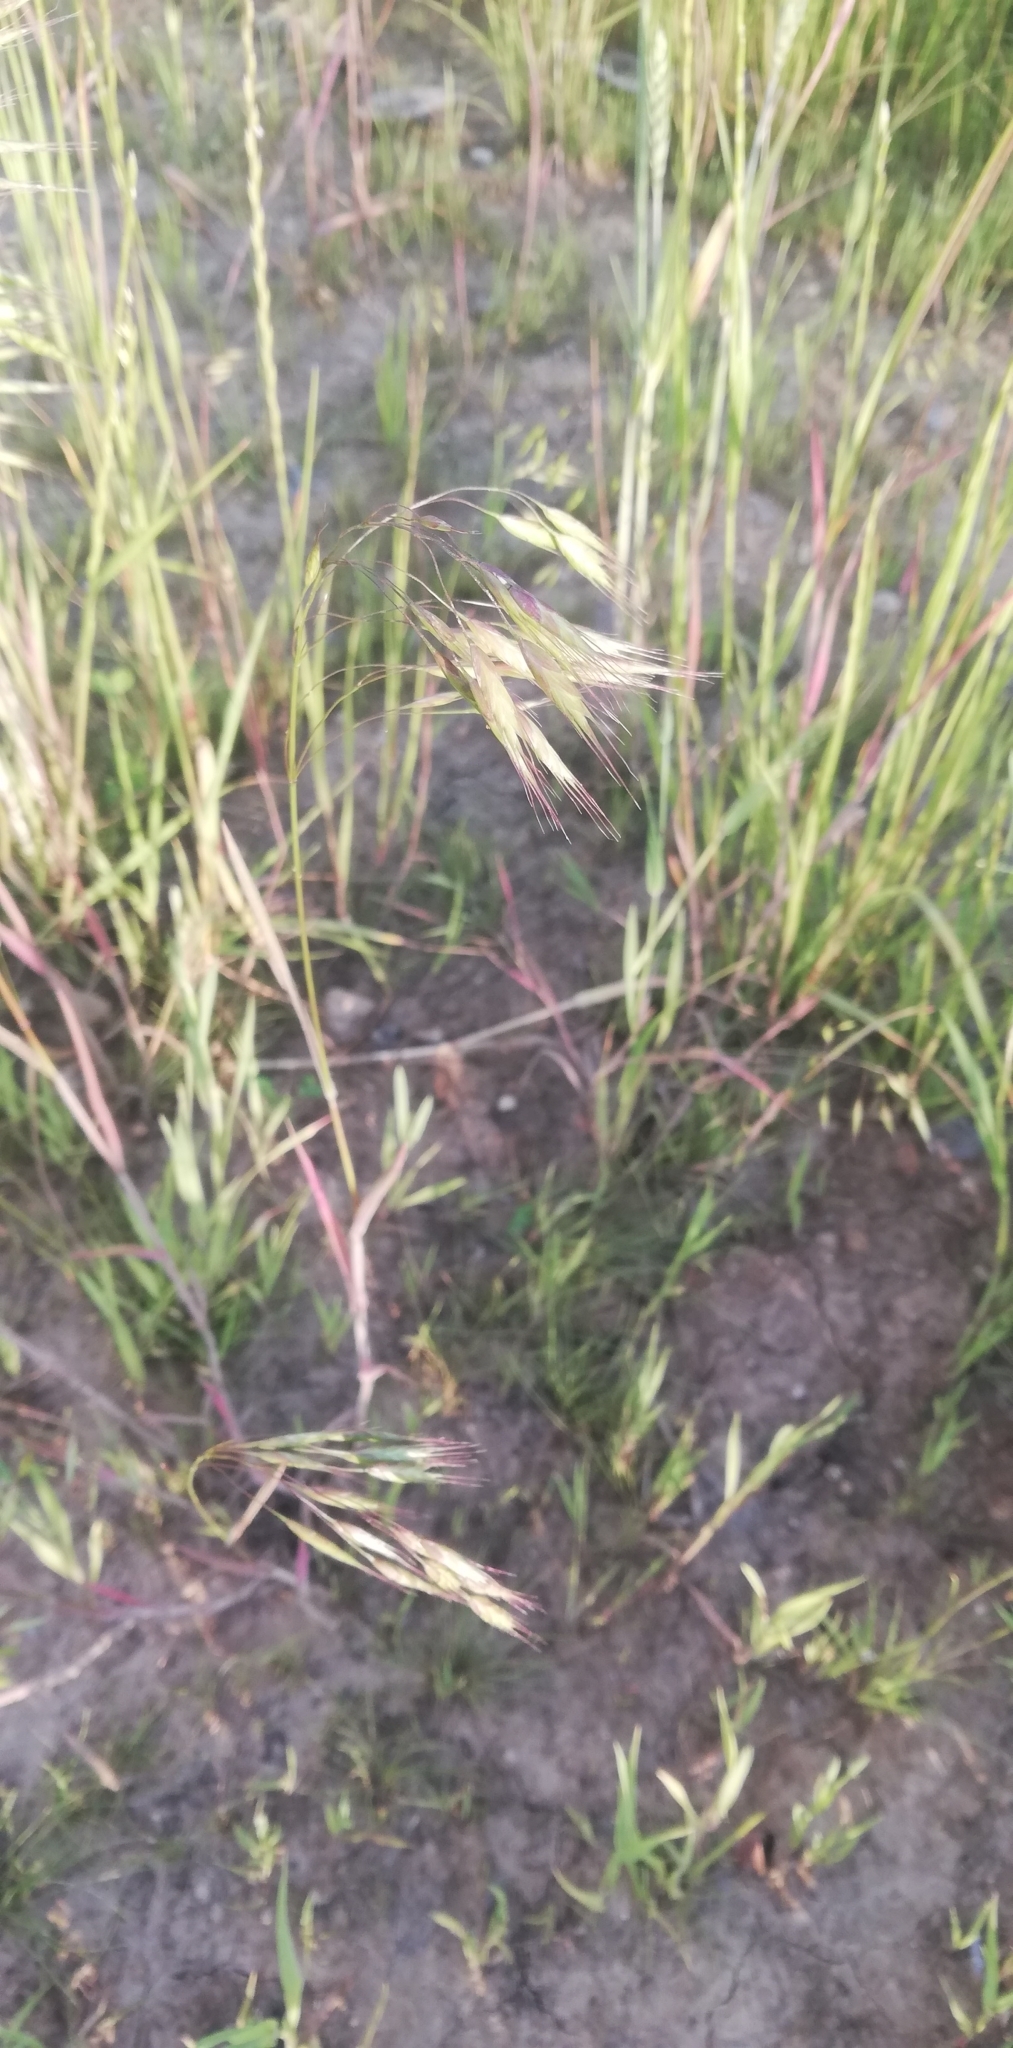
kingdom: Plantae
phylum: Tracheophyta
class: Liliopsida
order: Poales
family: Poaceae
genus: Bromus
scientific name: Bromus tectorum
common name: Cheatgrass
